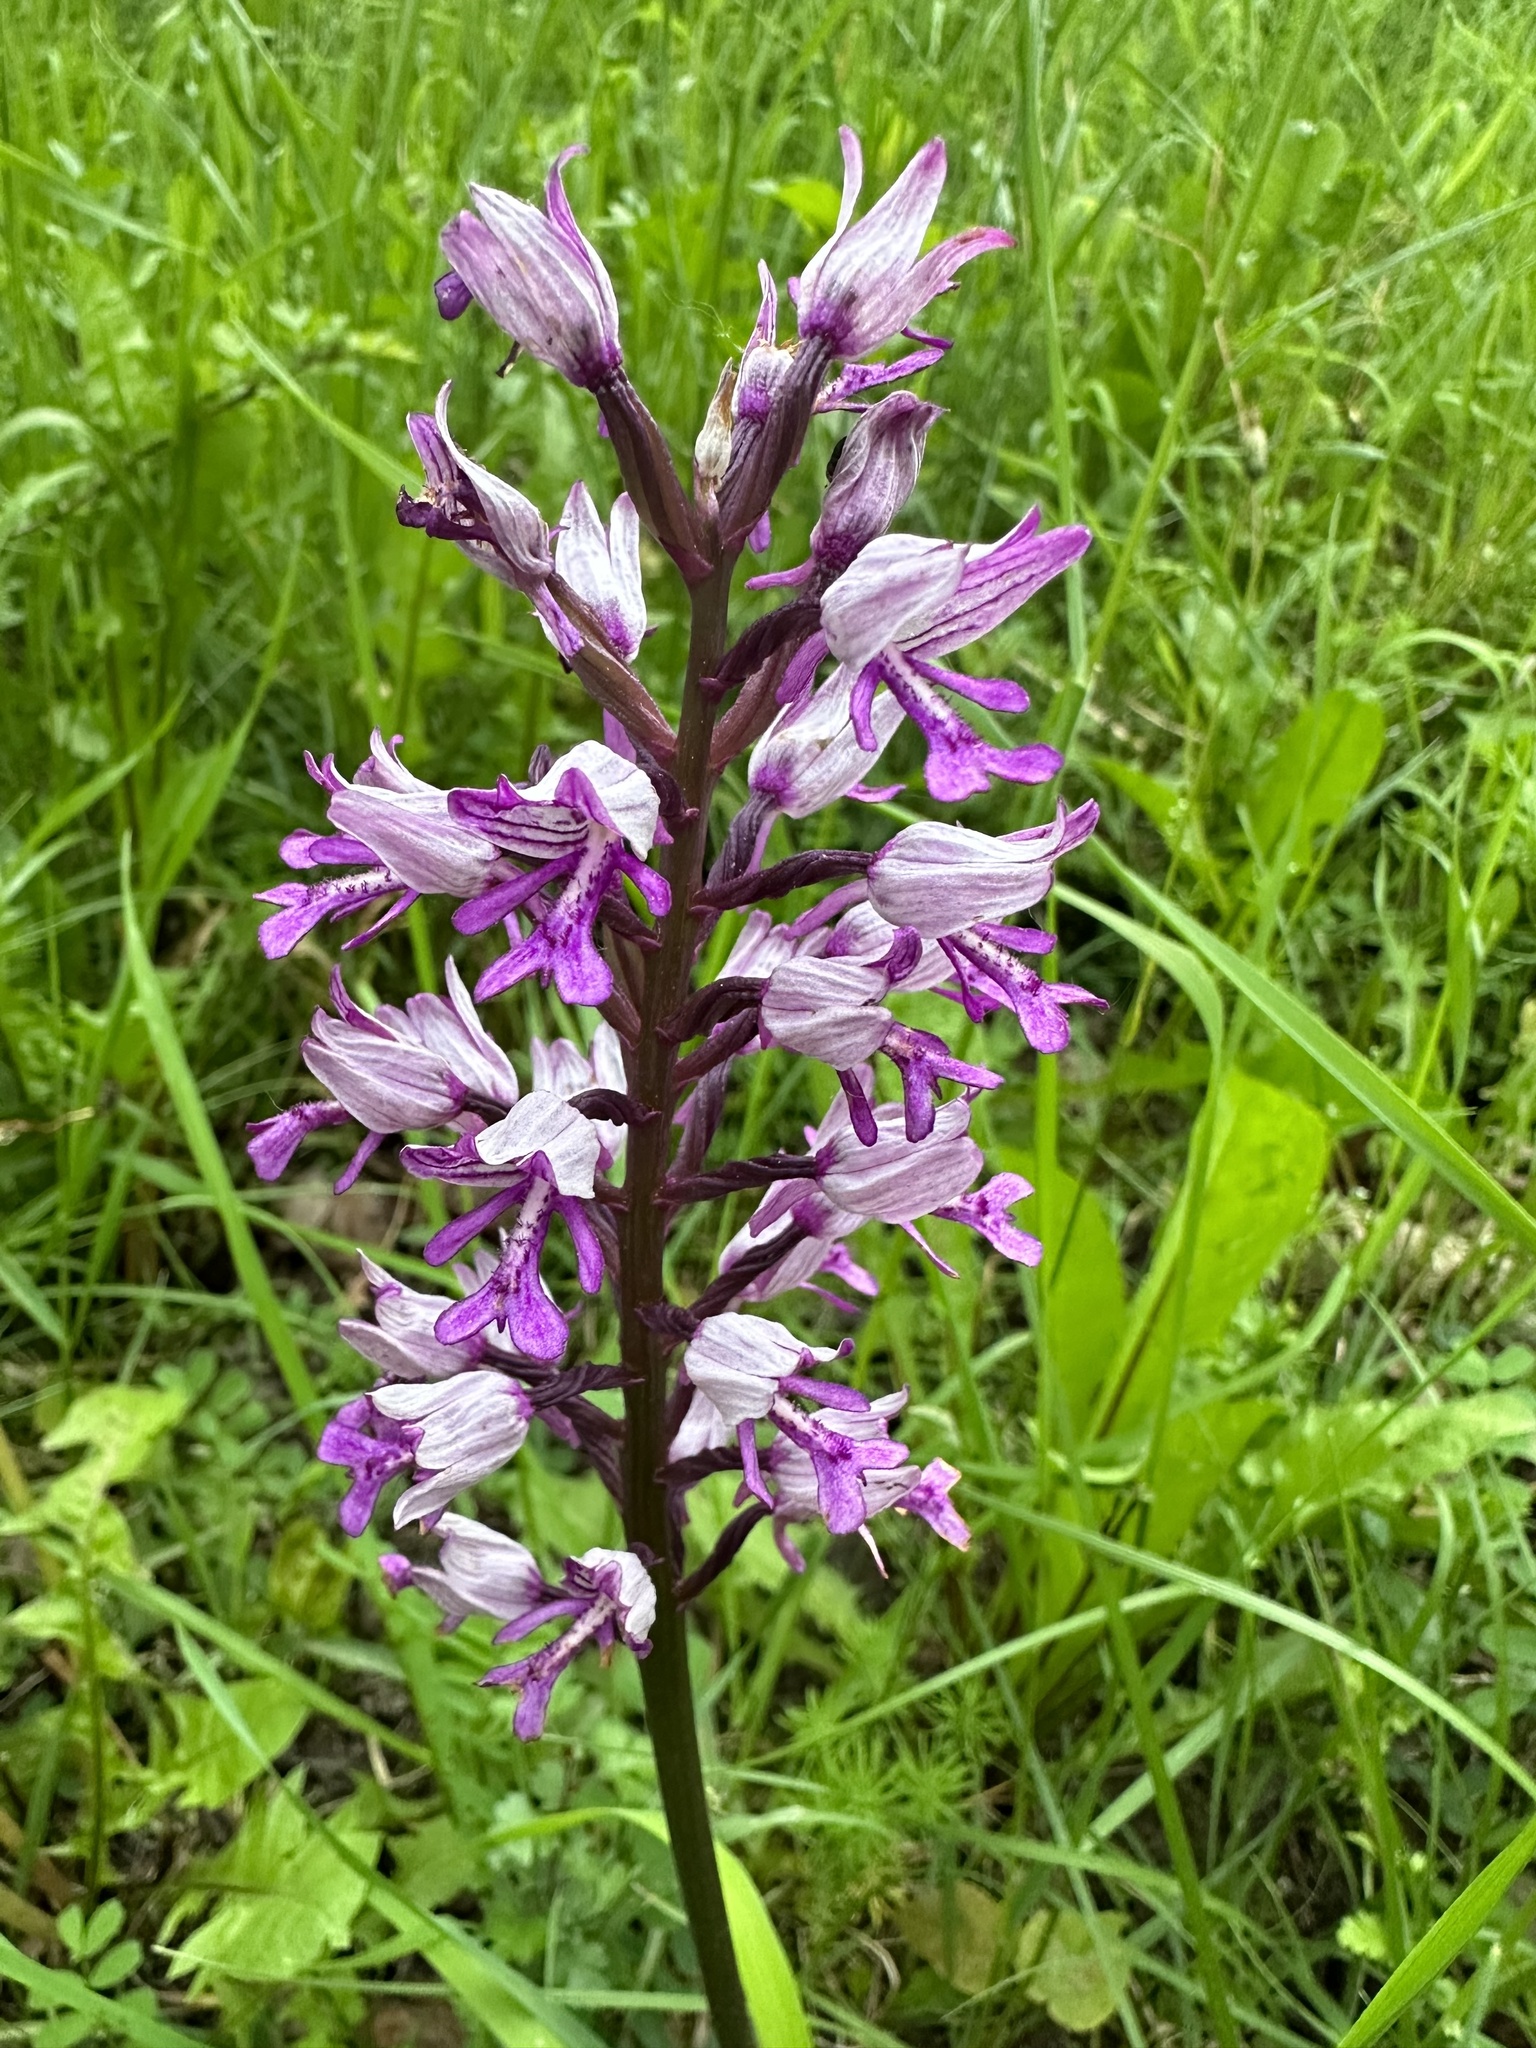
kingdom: Plantae
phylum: Tracheophyta
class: Liliopsida
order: Asparagales
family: Orchidaceae
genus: Orchis
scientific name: Orchis militaris
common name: Military orchid
